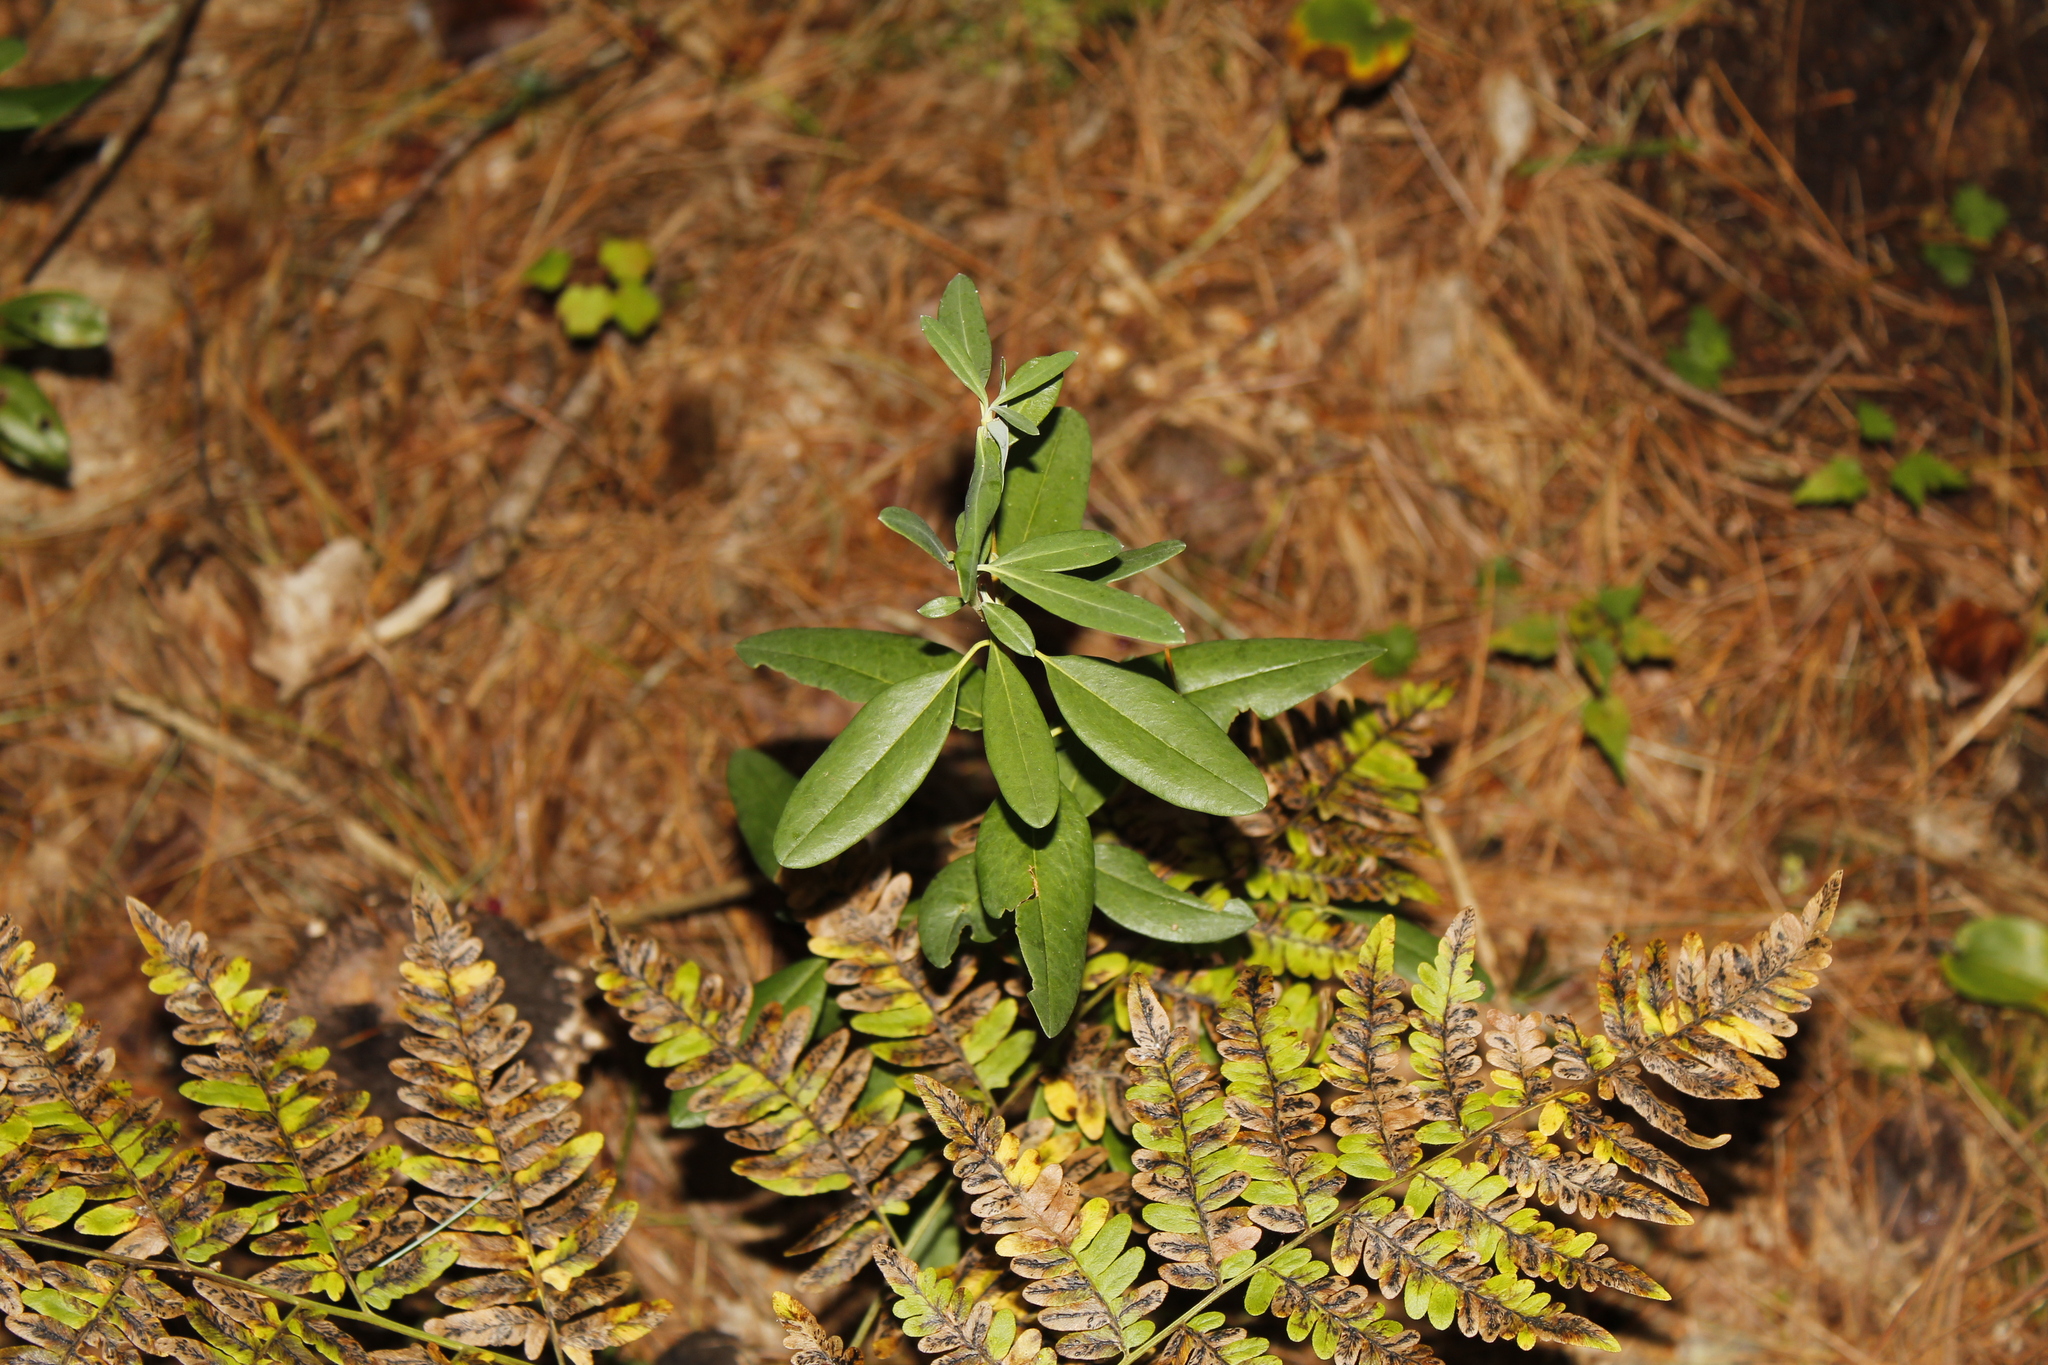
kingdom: Plantae
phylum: Tracheophyta
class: Magnoliopsida
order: Ericales
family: Ericaceae
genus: Kalmia
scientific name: Kalmia angustifolia
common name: Sheep-laurel
